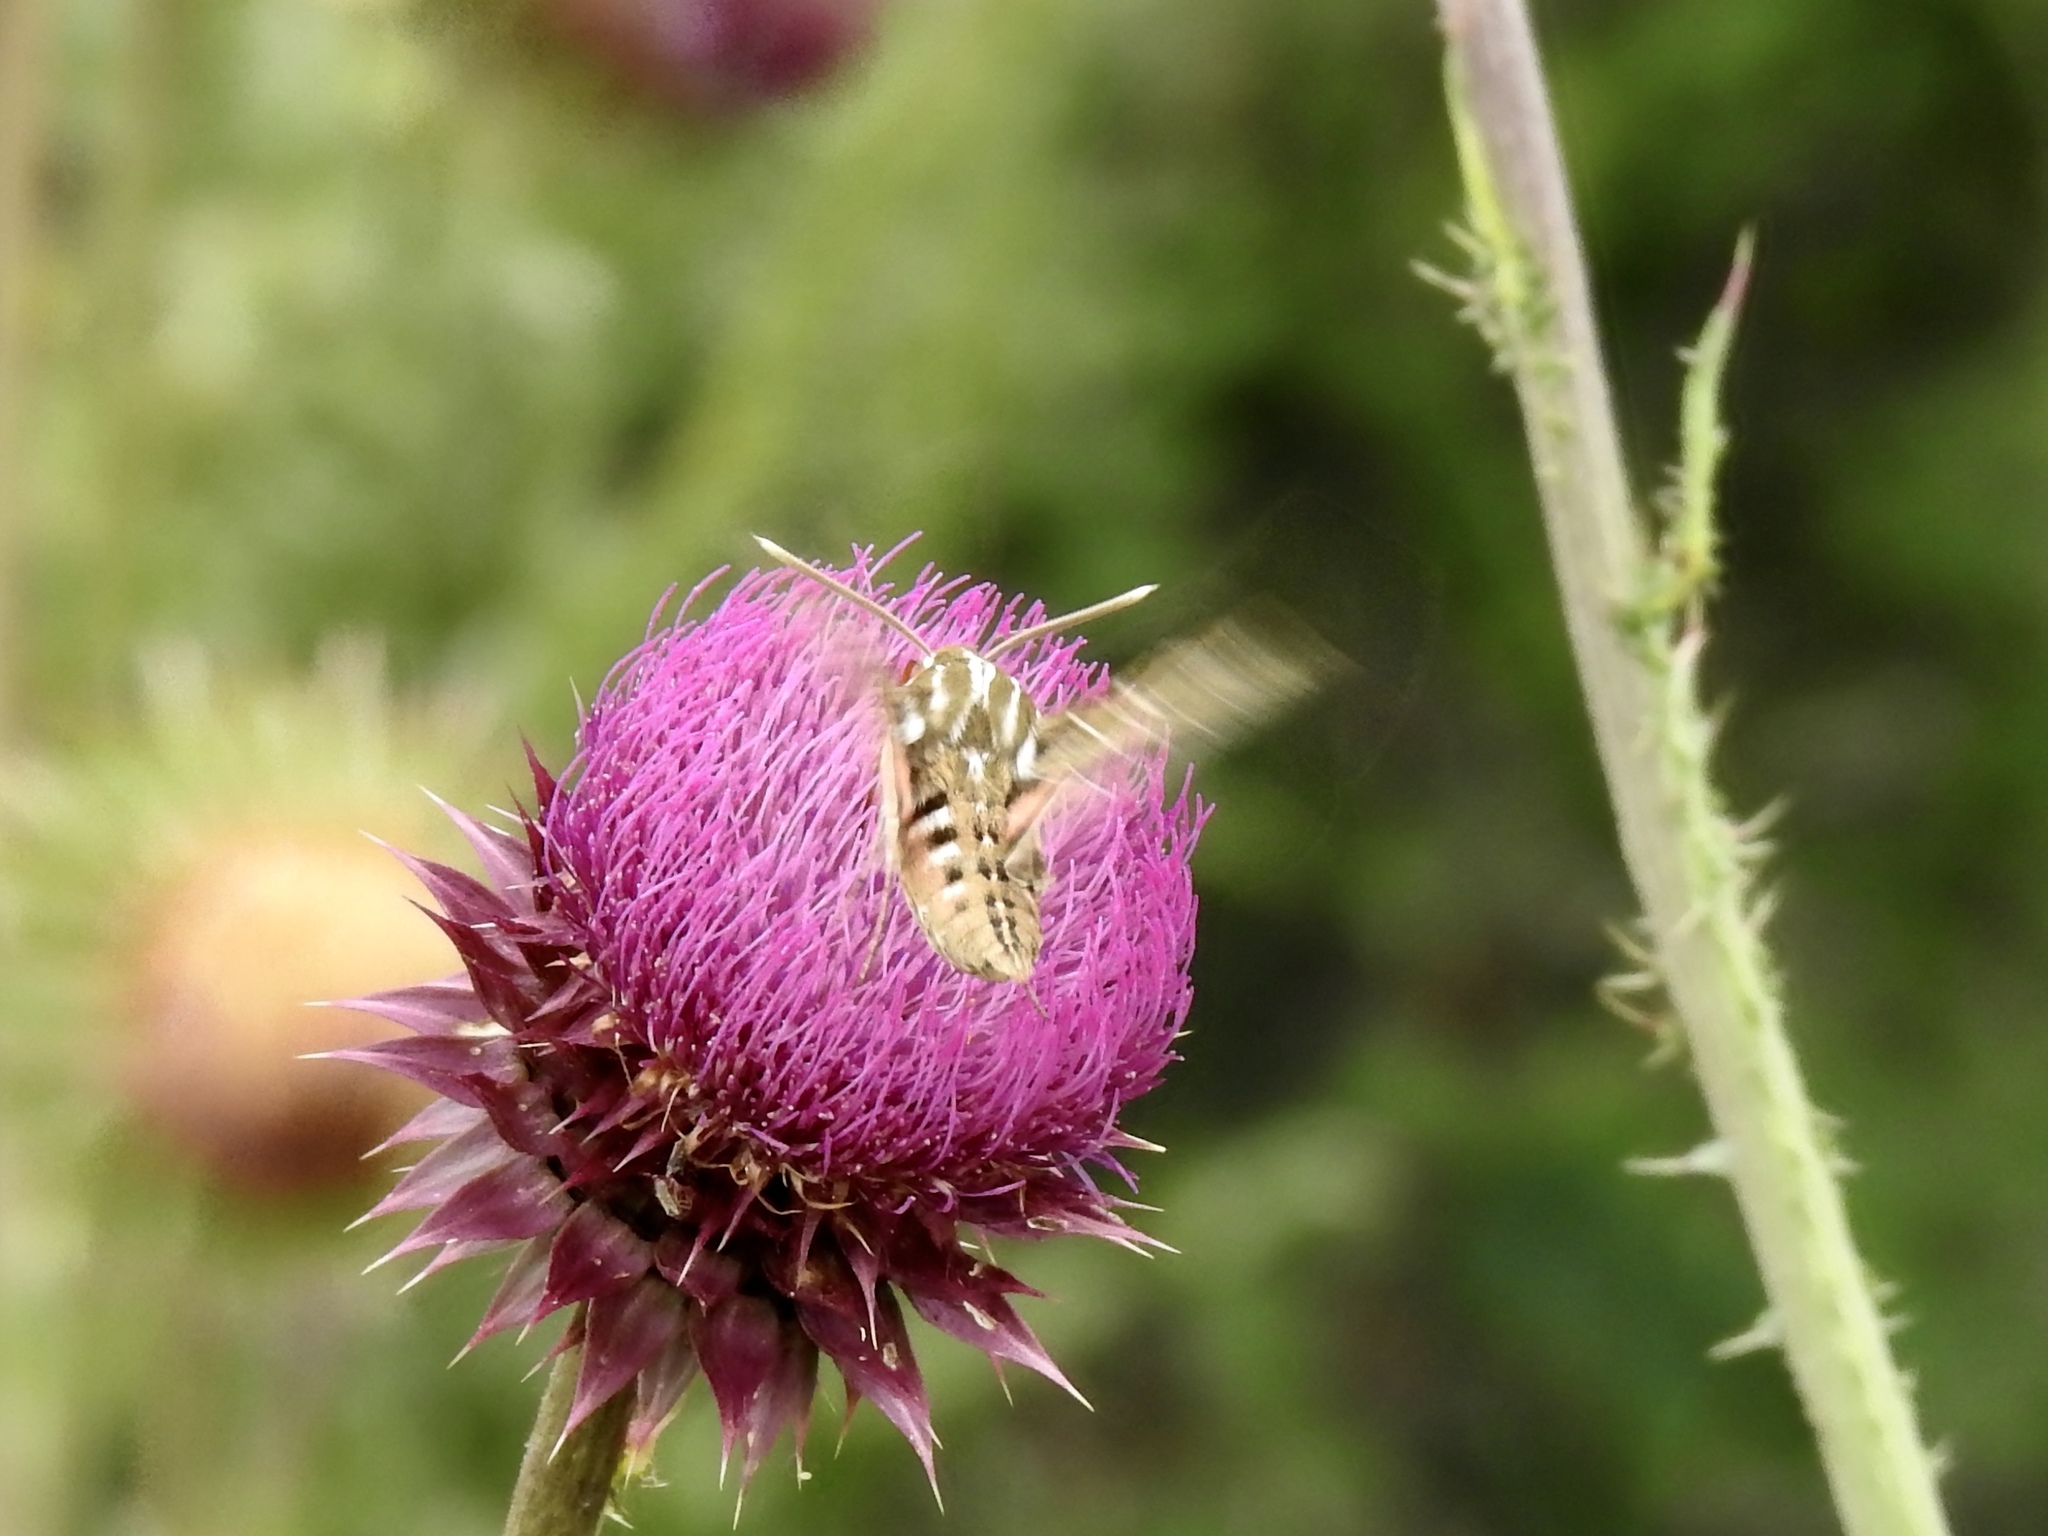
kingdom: Animalia
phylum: Arthropoda
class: Insecta
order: Lepidoptera
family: Sphingidae
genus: Hyles
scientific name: Hyles lineata
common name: White-lined sphinx
